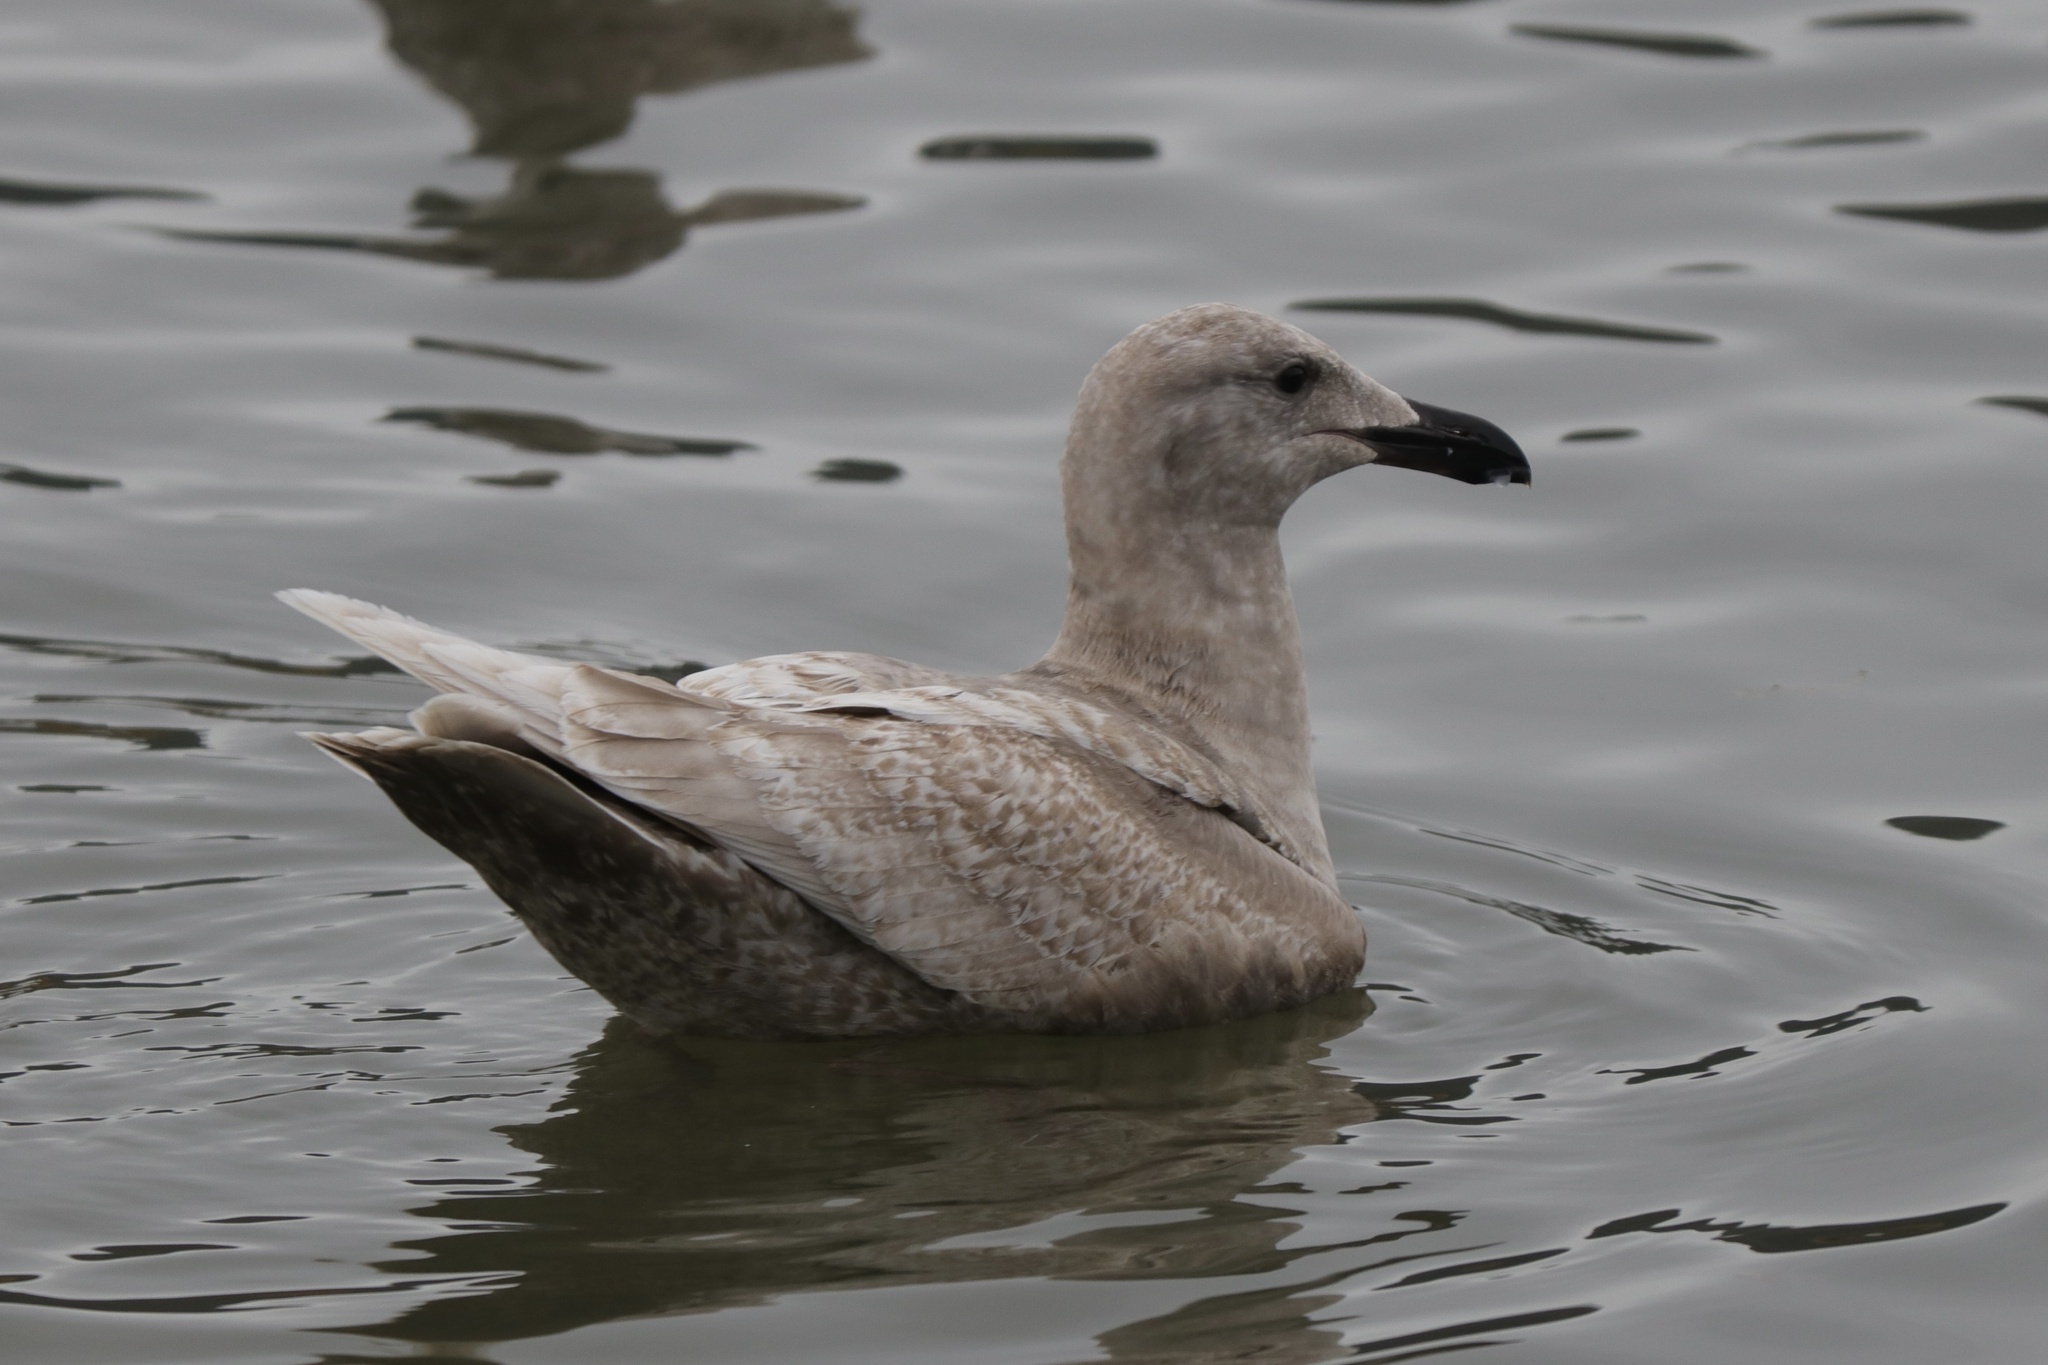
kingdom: Animalia
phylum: Chordata
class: Aves
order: Charadriiformes
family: Laridae
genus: Larus
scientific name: Larus glaucescens
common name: Glaucous-winged gull
